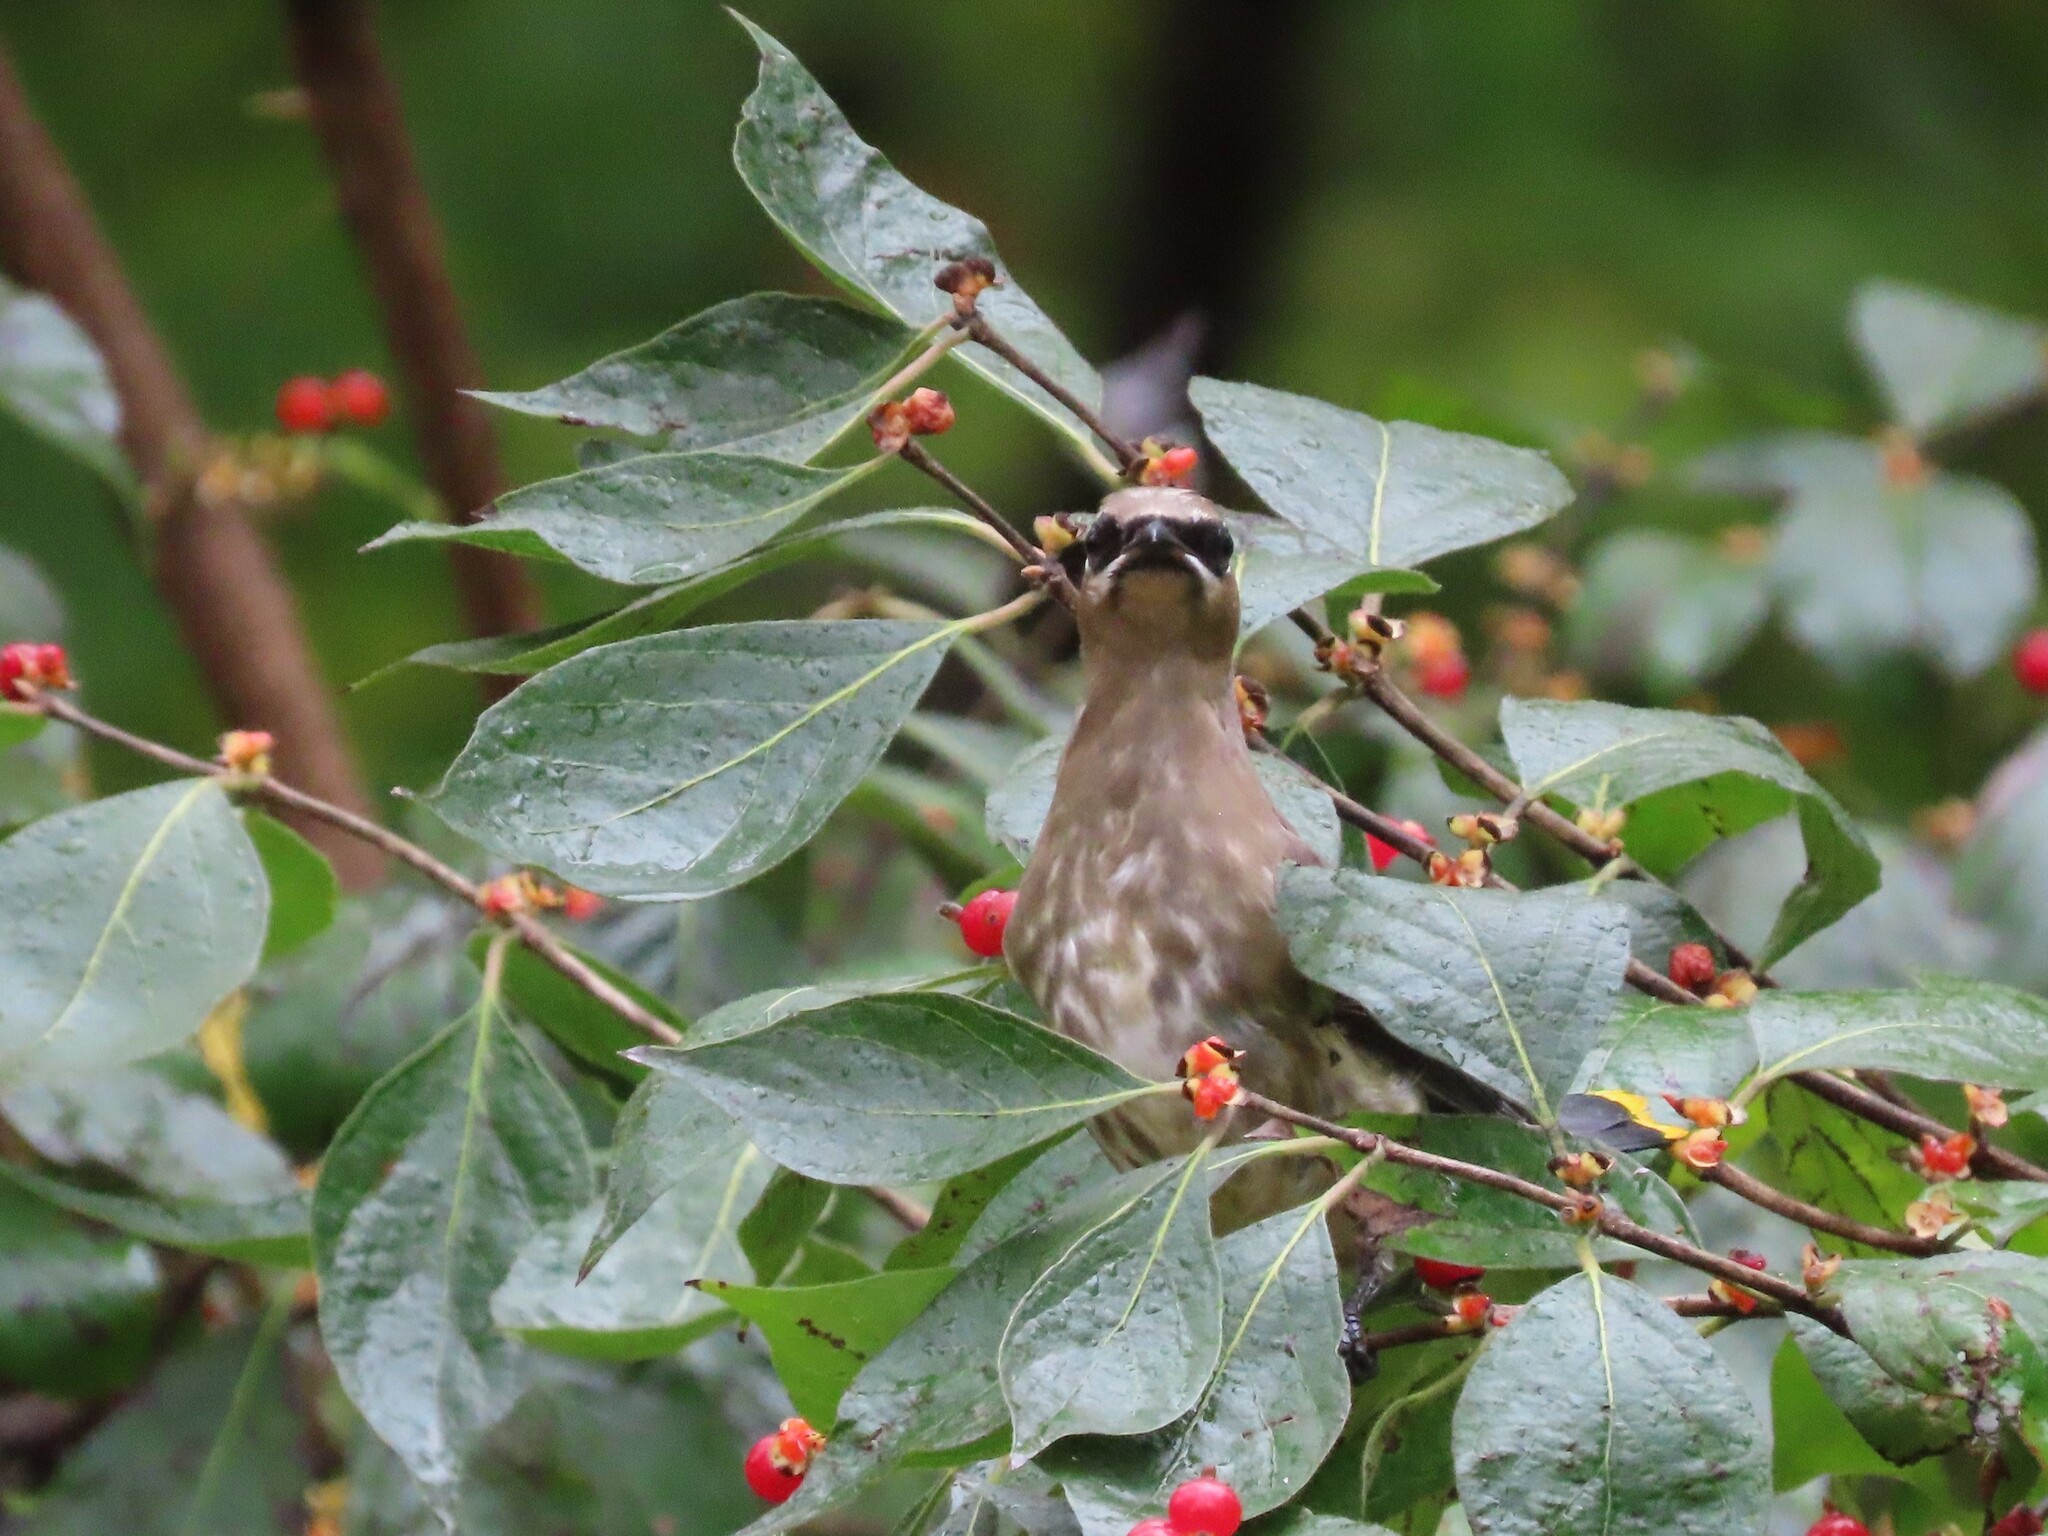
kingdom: Animalia
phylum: Chordata
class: Aves
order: Passeriformes
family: Bombycillidae
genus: Bombycilla
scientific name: Bombycilla cedrorum
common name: Cedar waxwing
